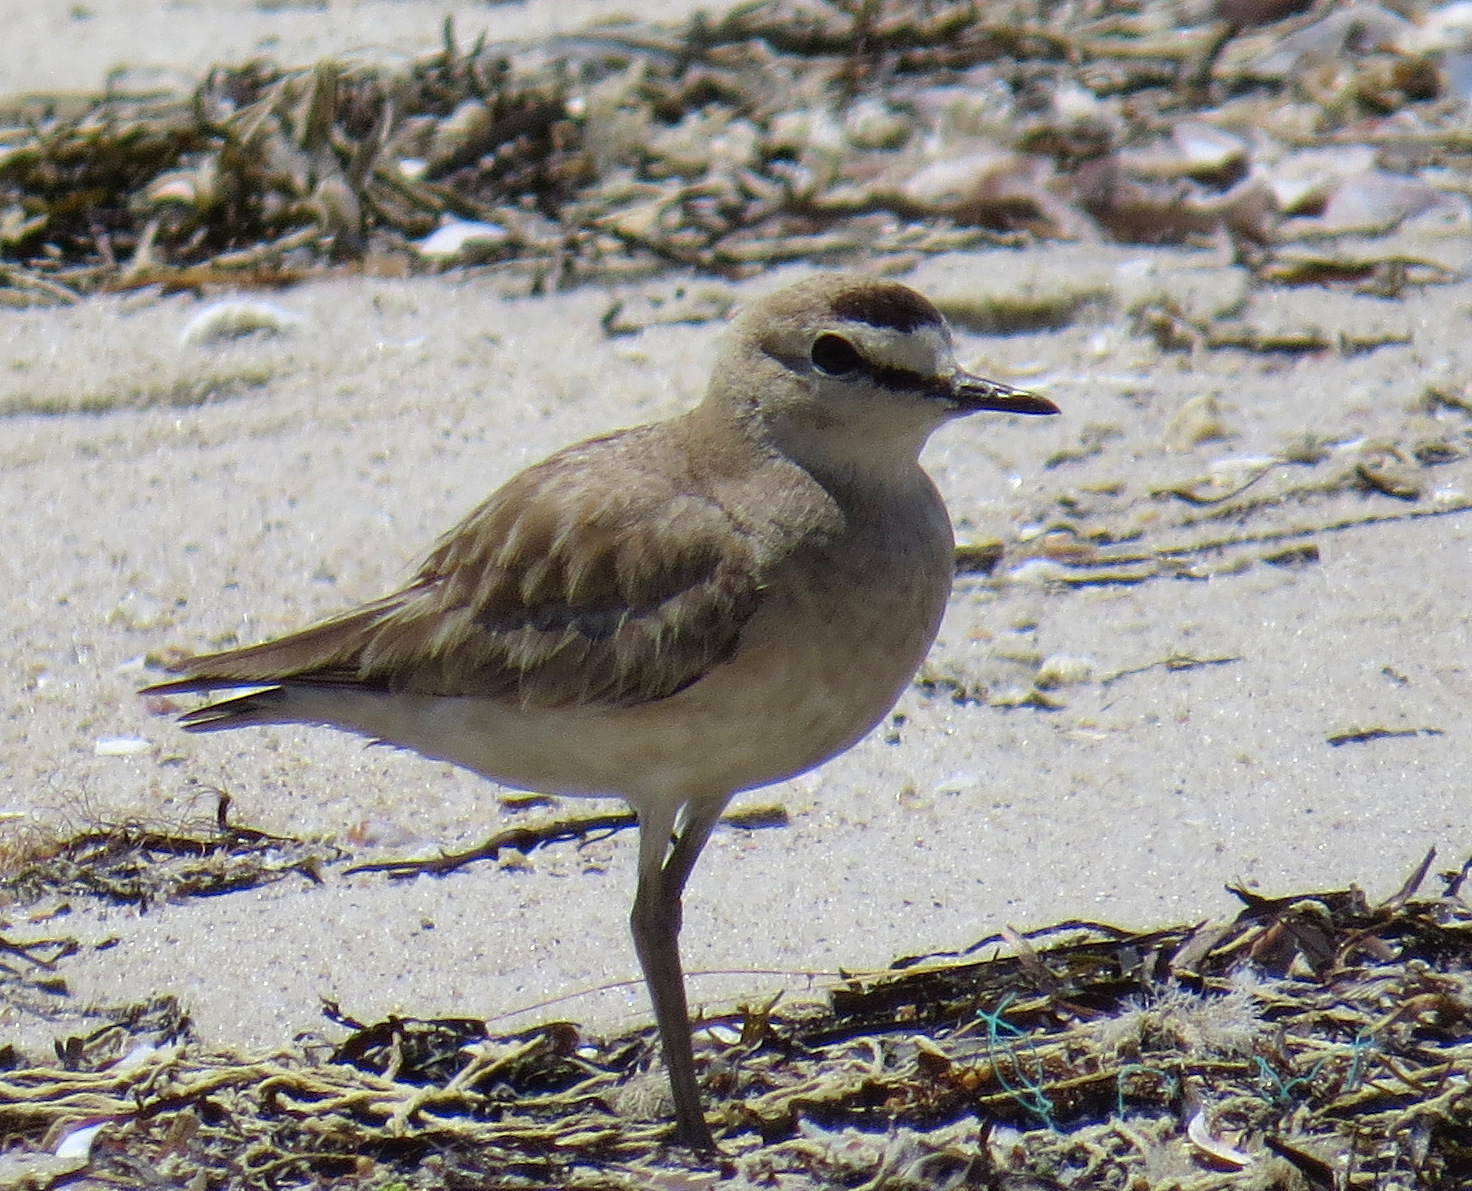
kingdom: Animalia
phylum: Chordata
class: Aves
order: Charadriiformes
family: Charadriidae
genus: Anarhynchus
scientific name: Anarhynchus
